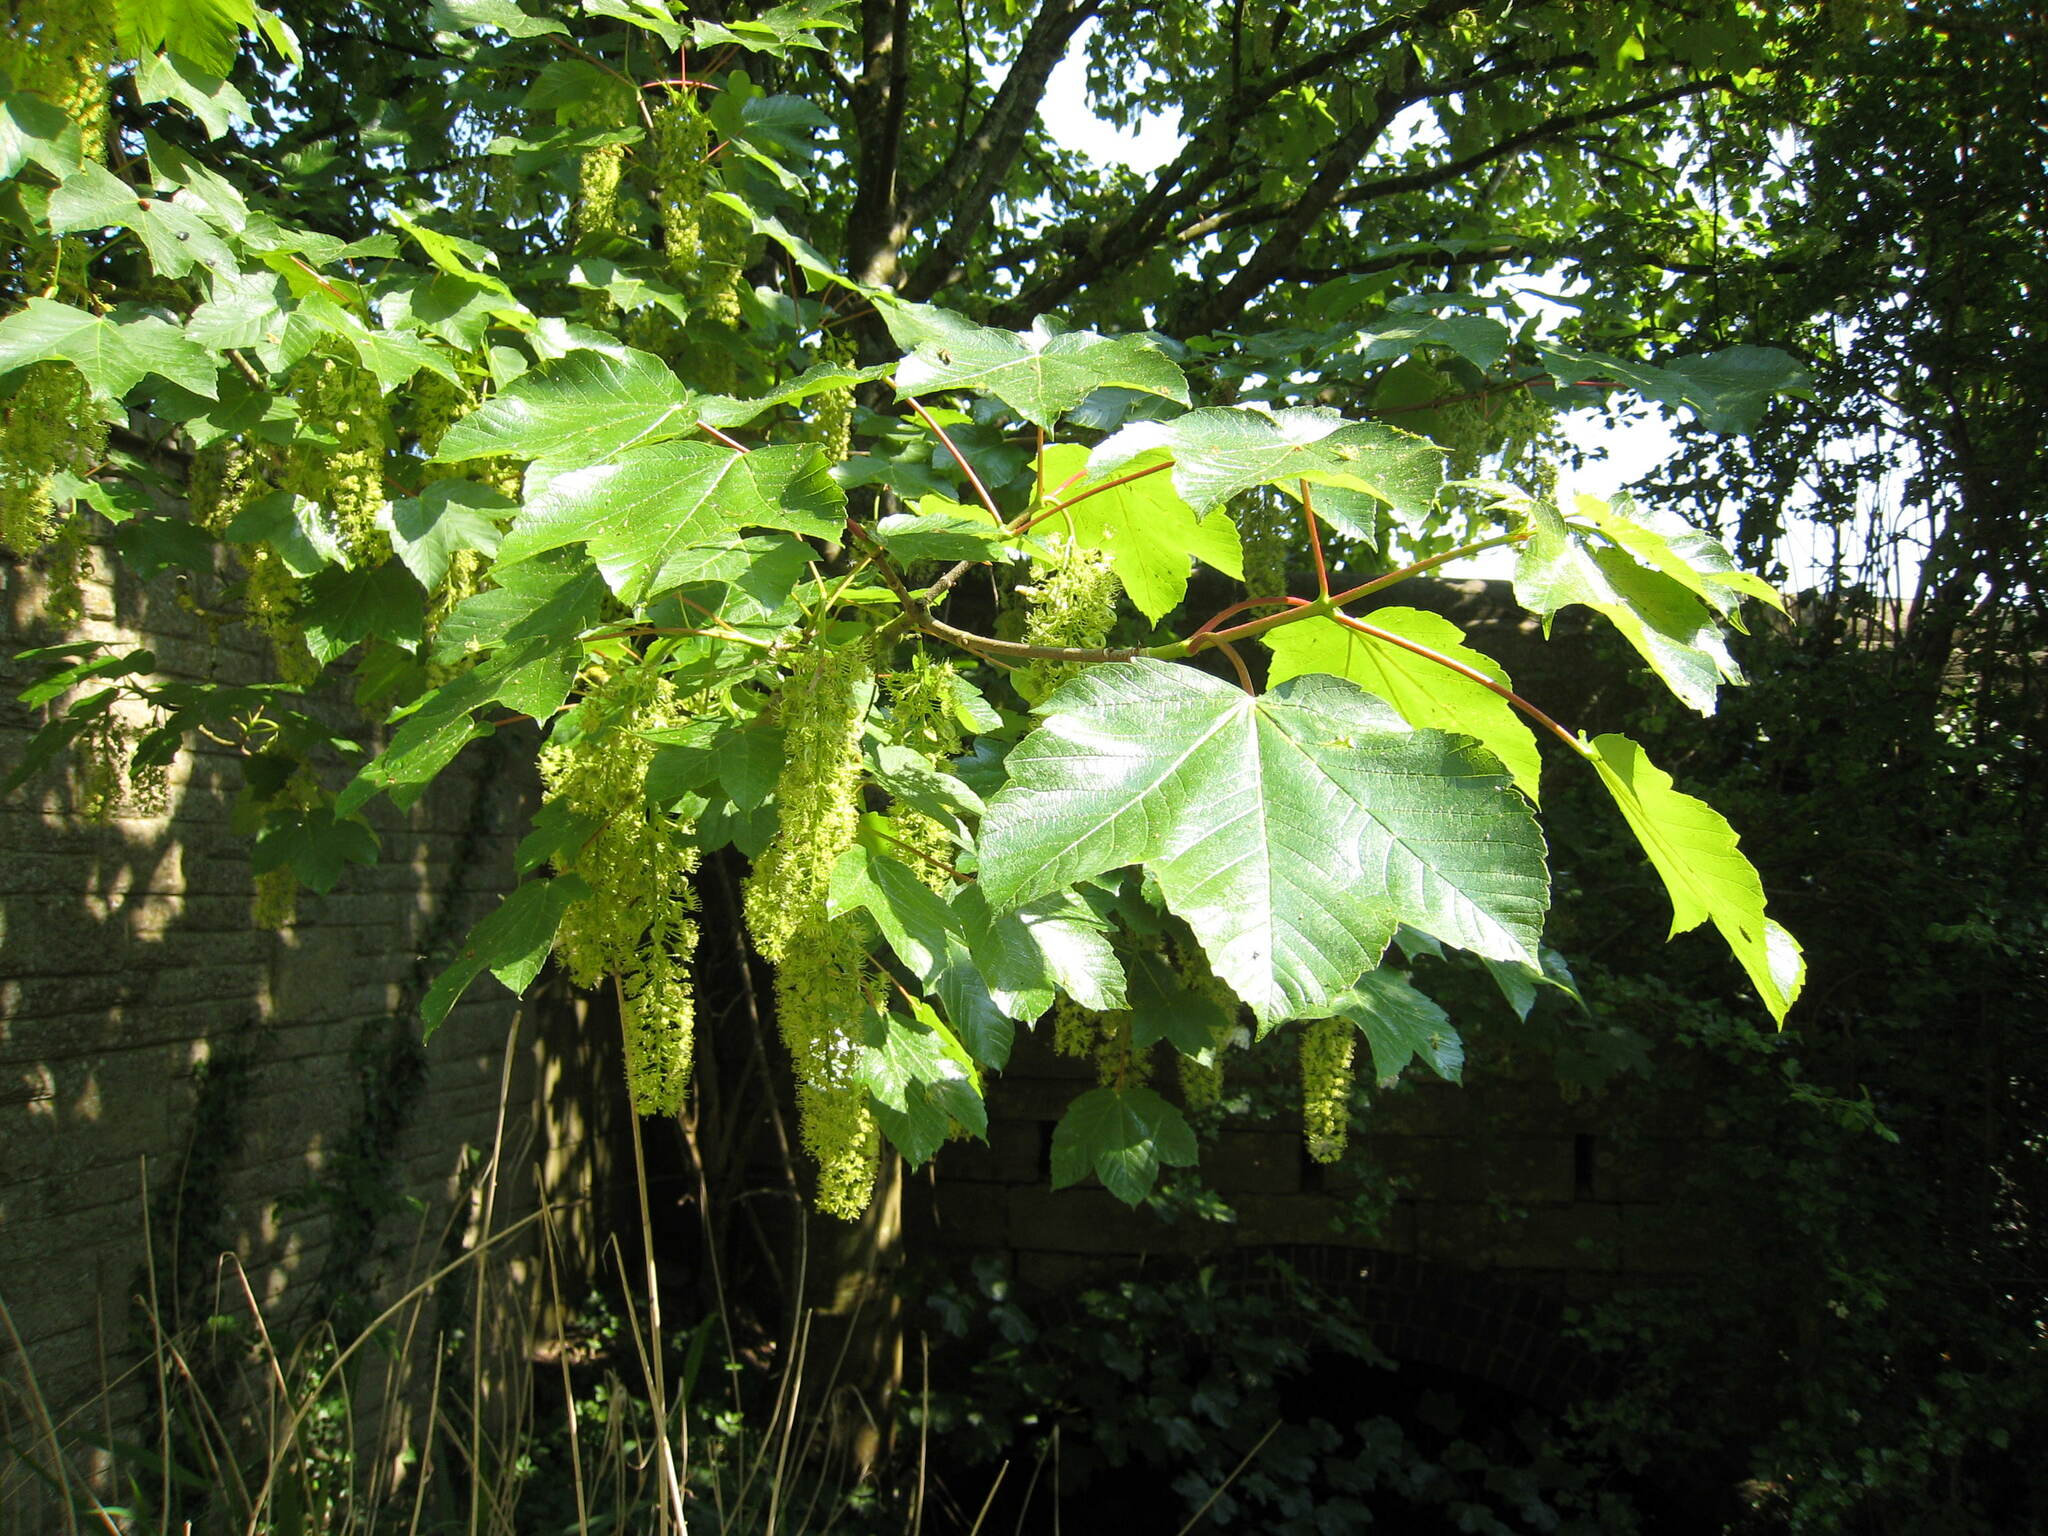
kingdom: Plantae
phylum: Tracheophyta
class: Magnoliopsida
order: Sapindales
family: Sapindaceae
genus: Acer
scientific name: Acer pseudoplatanus
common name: Sycamore
